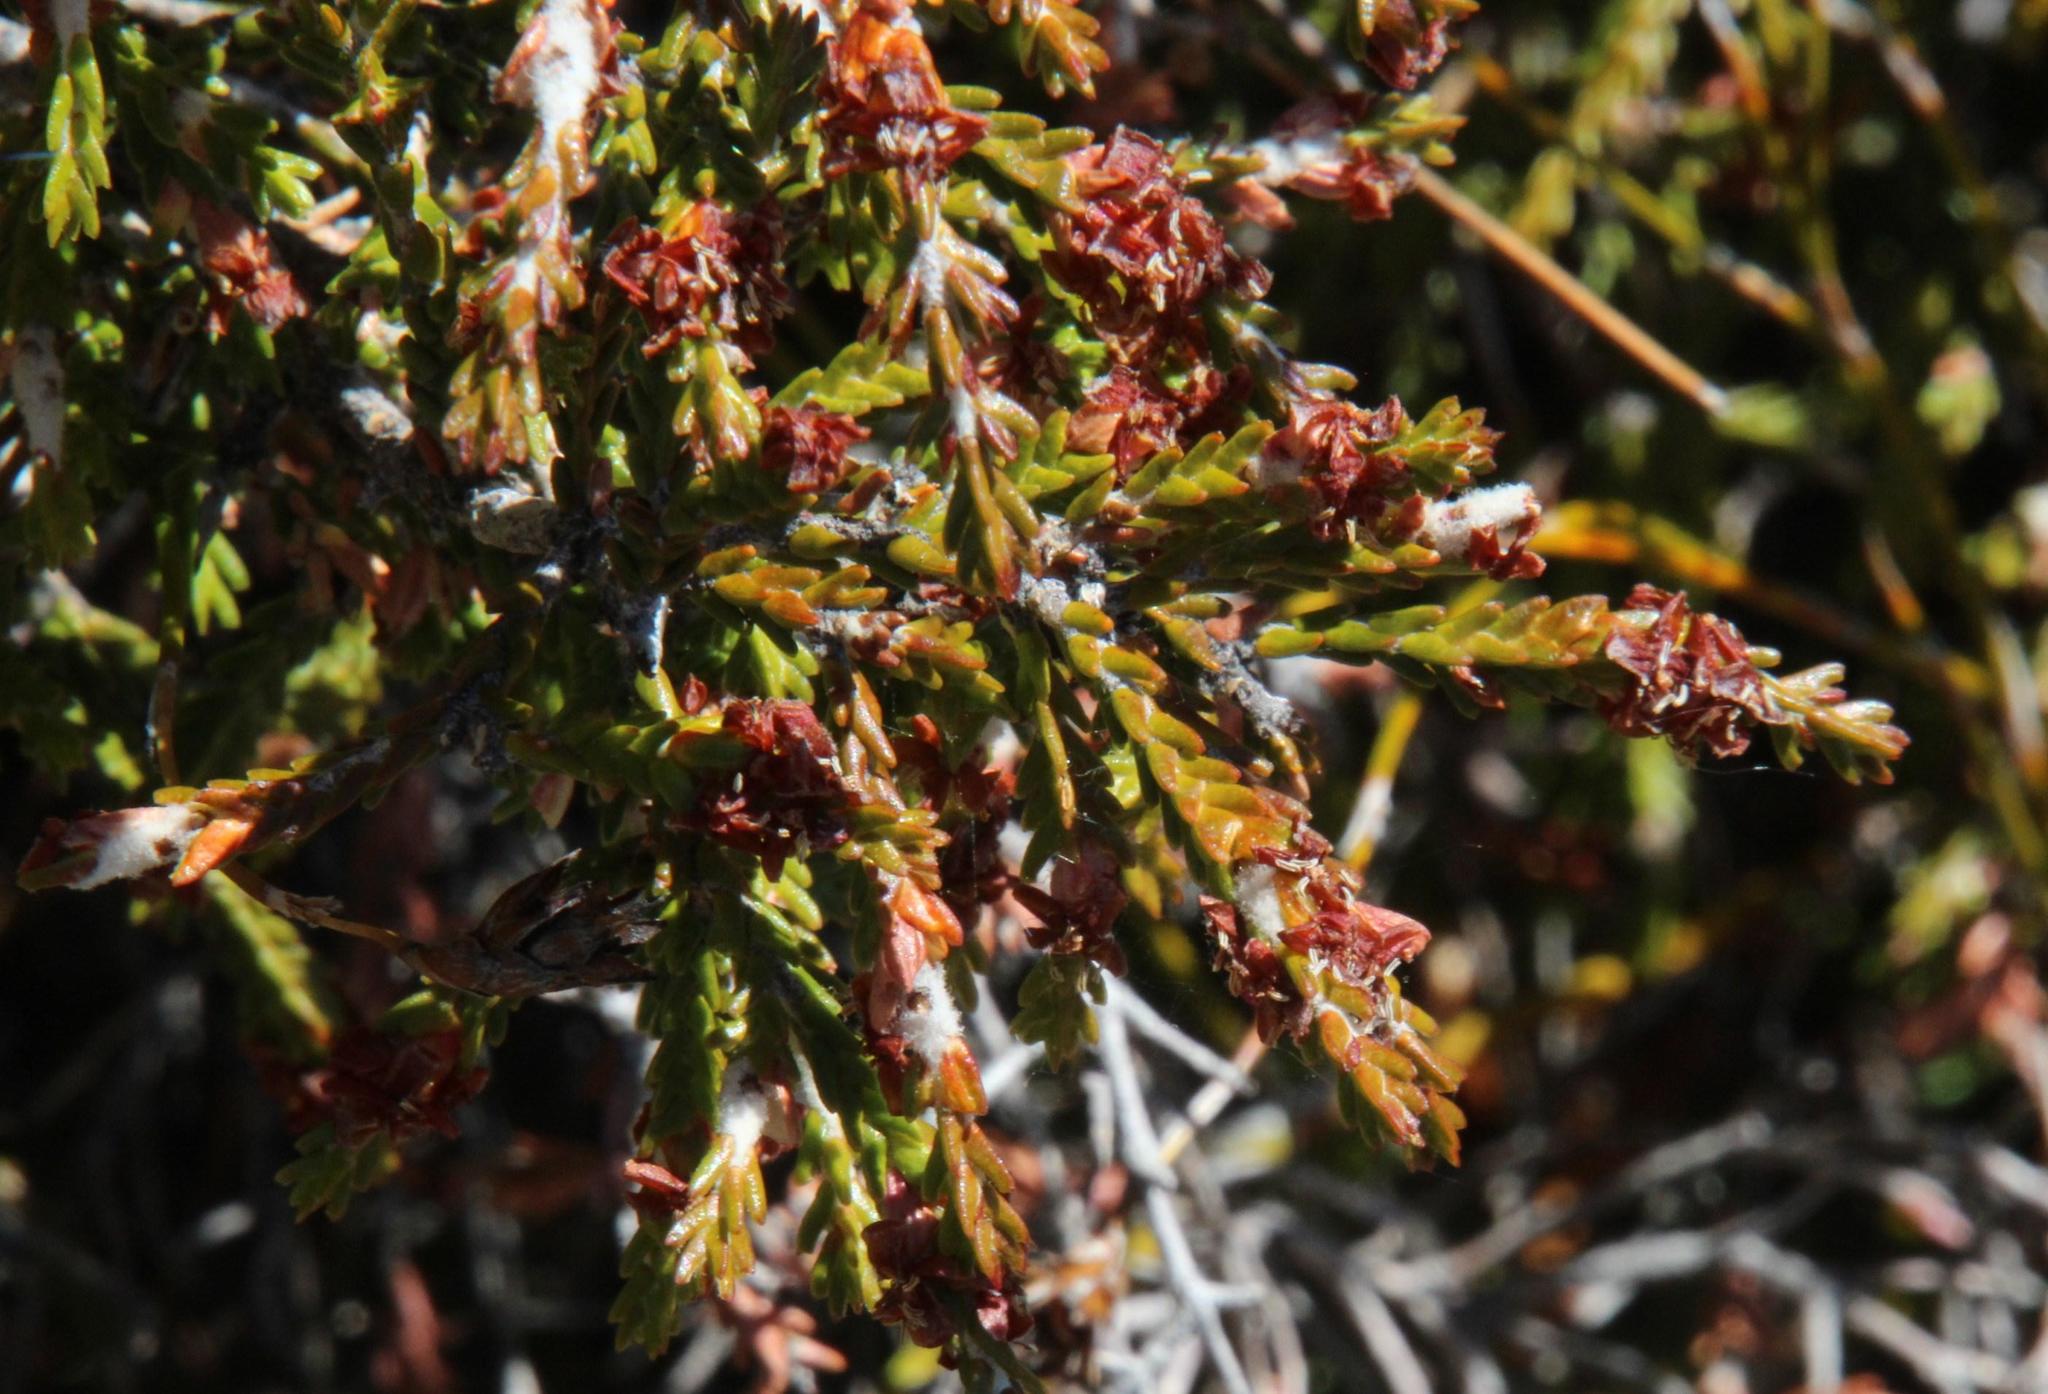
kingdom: Plantae
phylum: Tracheophyta
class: Magnoliopsida
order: Malvales
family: Thymelaeaceae
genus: Passerina
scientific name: Passerina truncata
